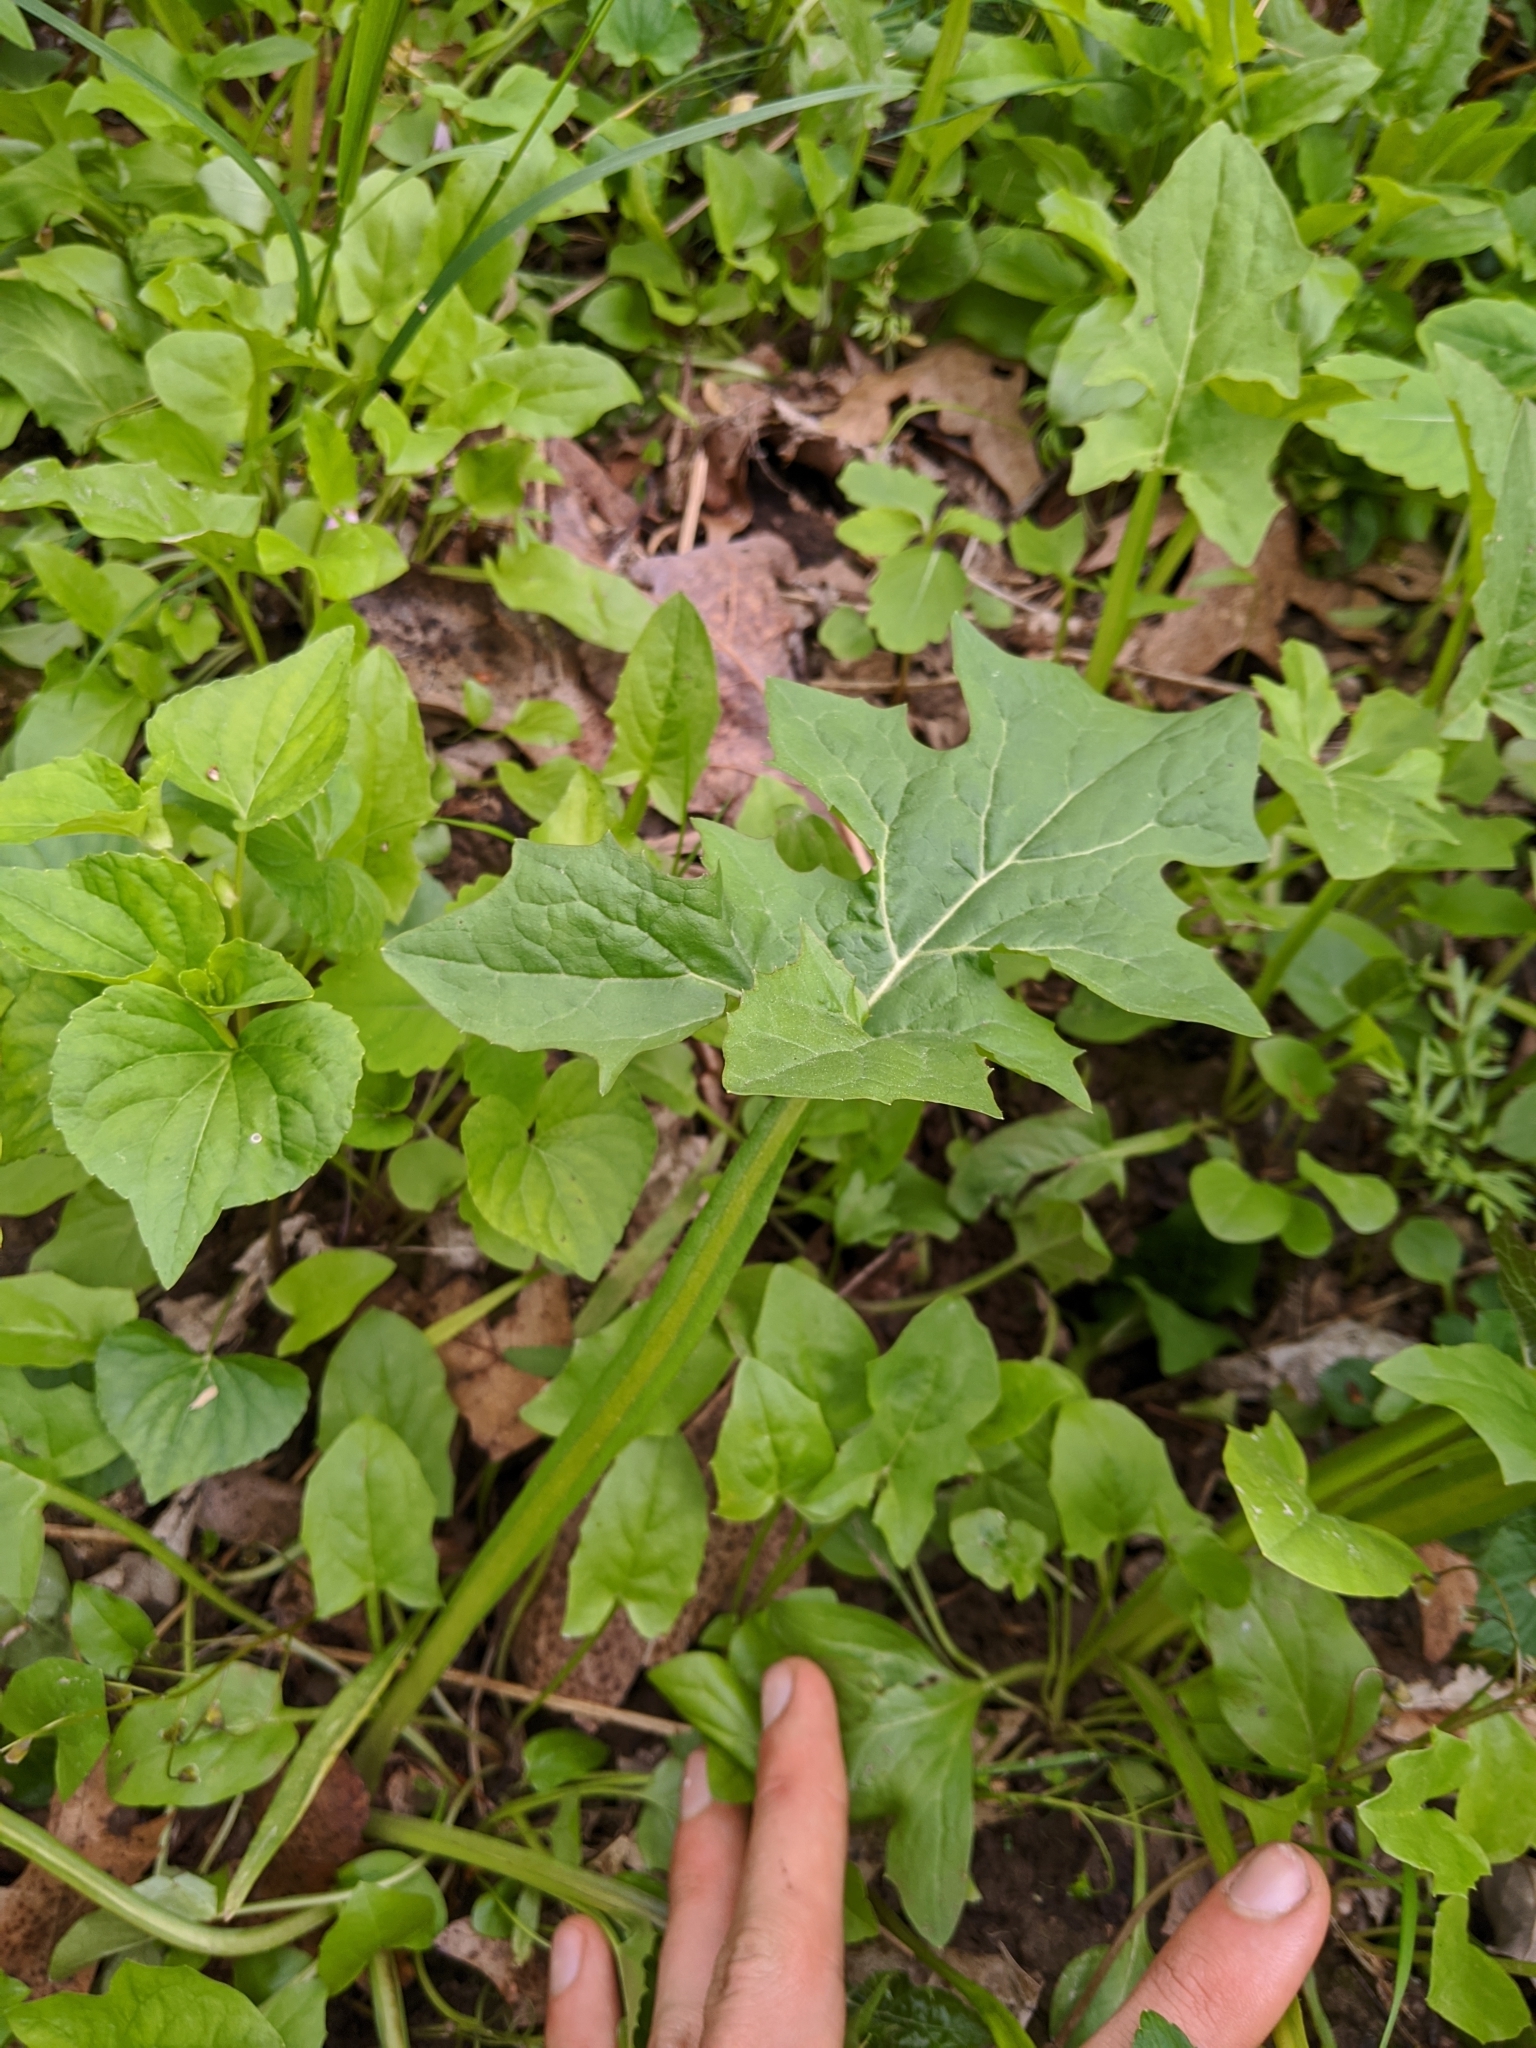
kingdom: Plantae
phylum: Tracheophyta
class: Magnoliopsida
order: Asterales
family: Asteraceae
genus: Nabalus
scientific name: Nabalus crepidineus
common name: Nodding rattlesnakeroot
